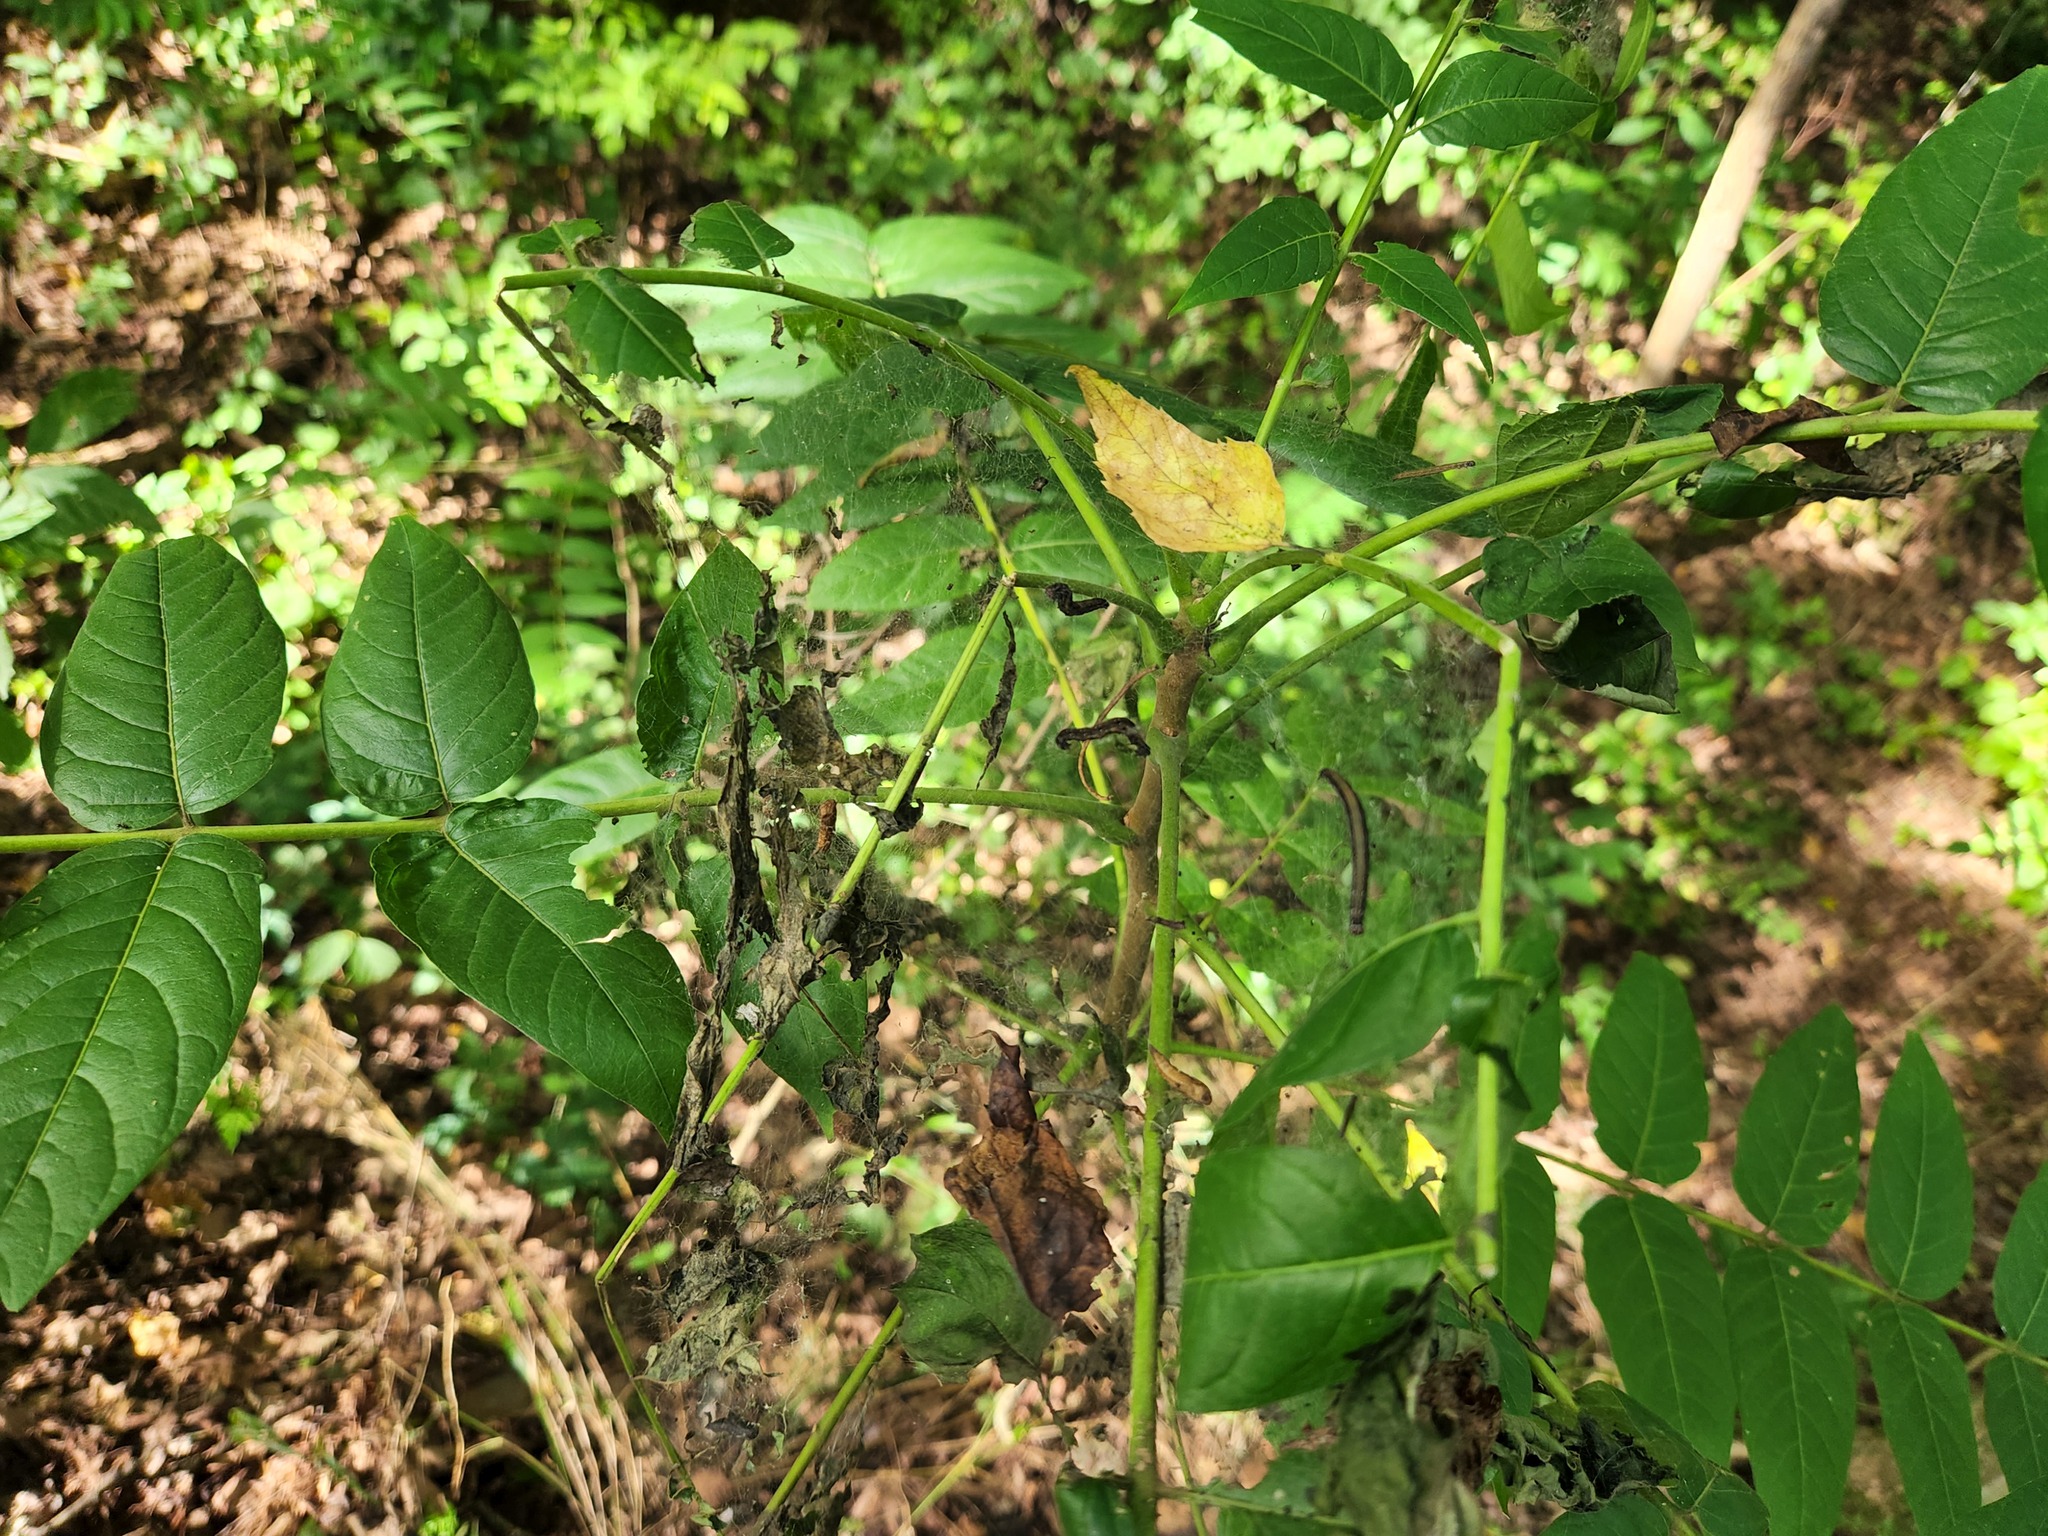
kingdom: Animalia
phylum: Arthropoda
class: Insecta
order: Lepidoptera
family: Attevidae
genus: Atteva
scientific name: Atteva punctella
